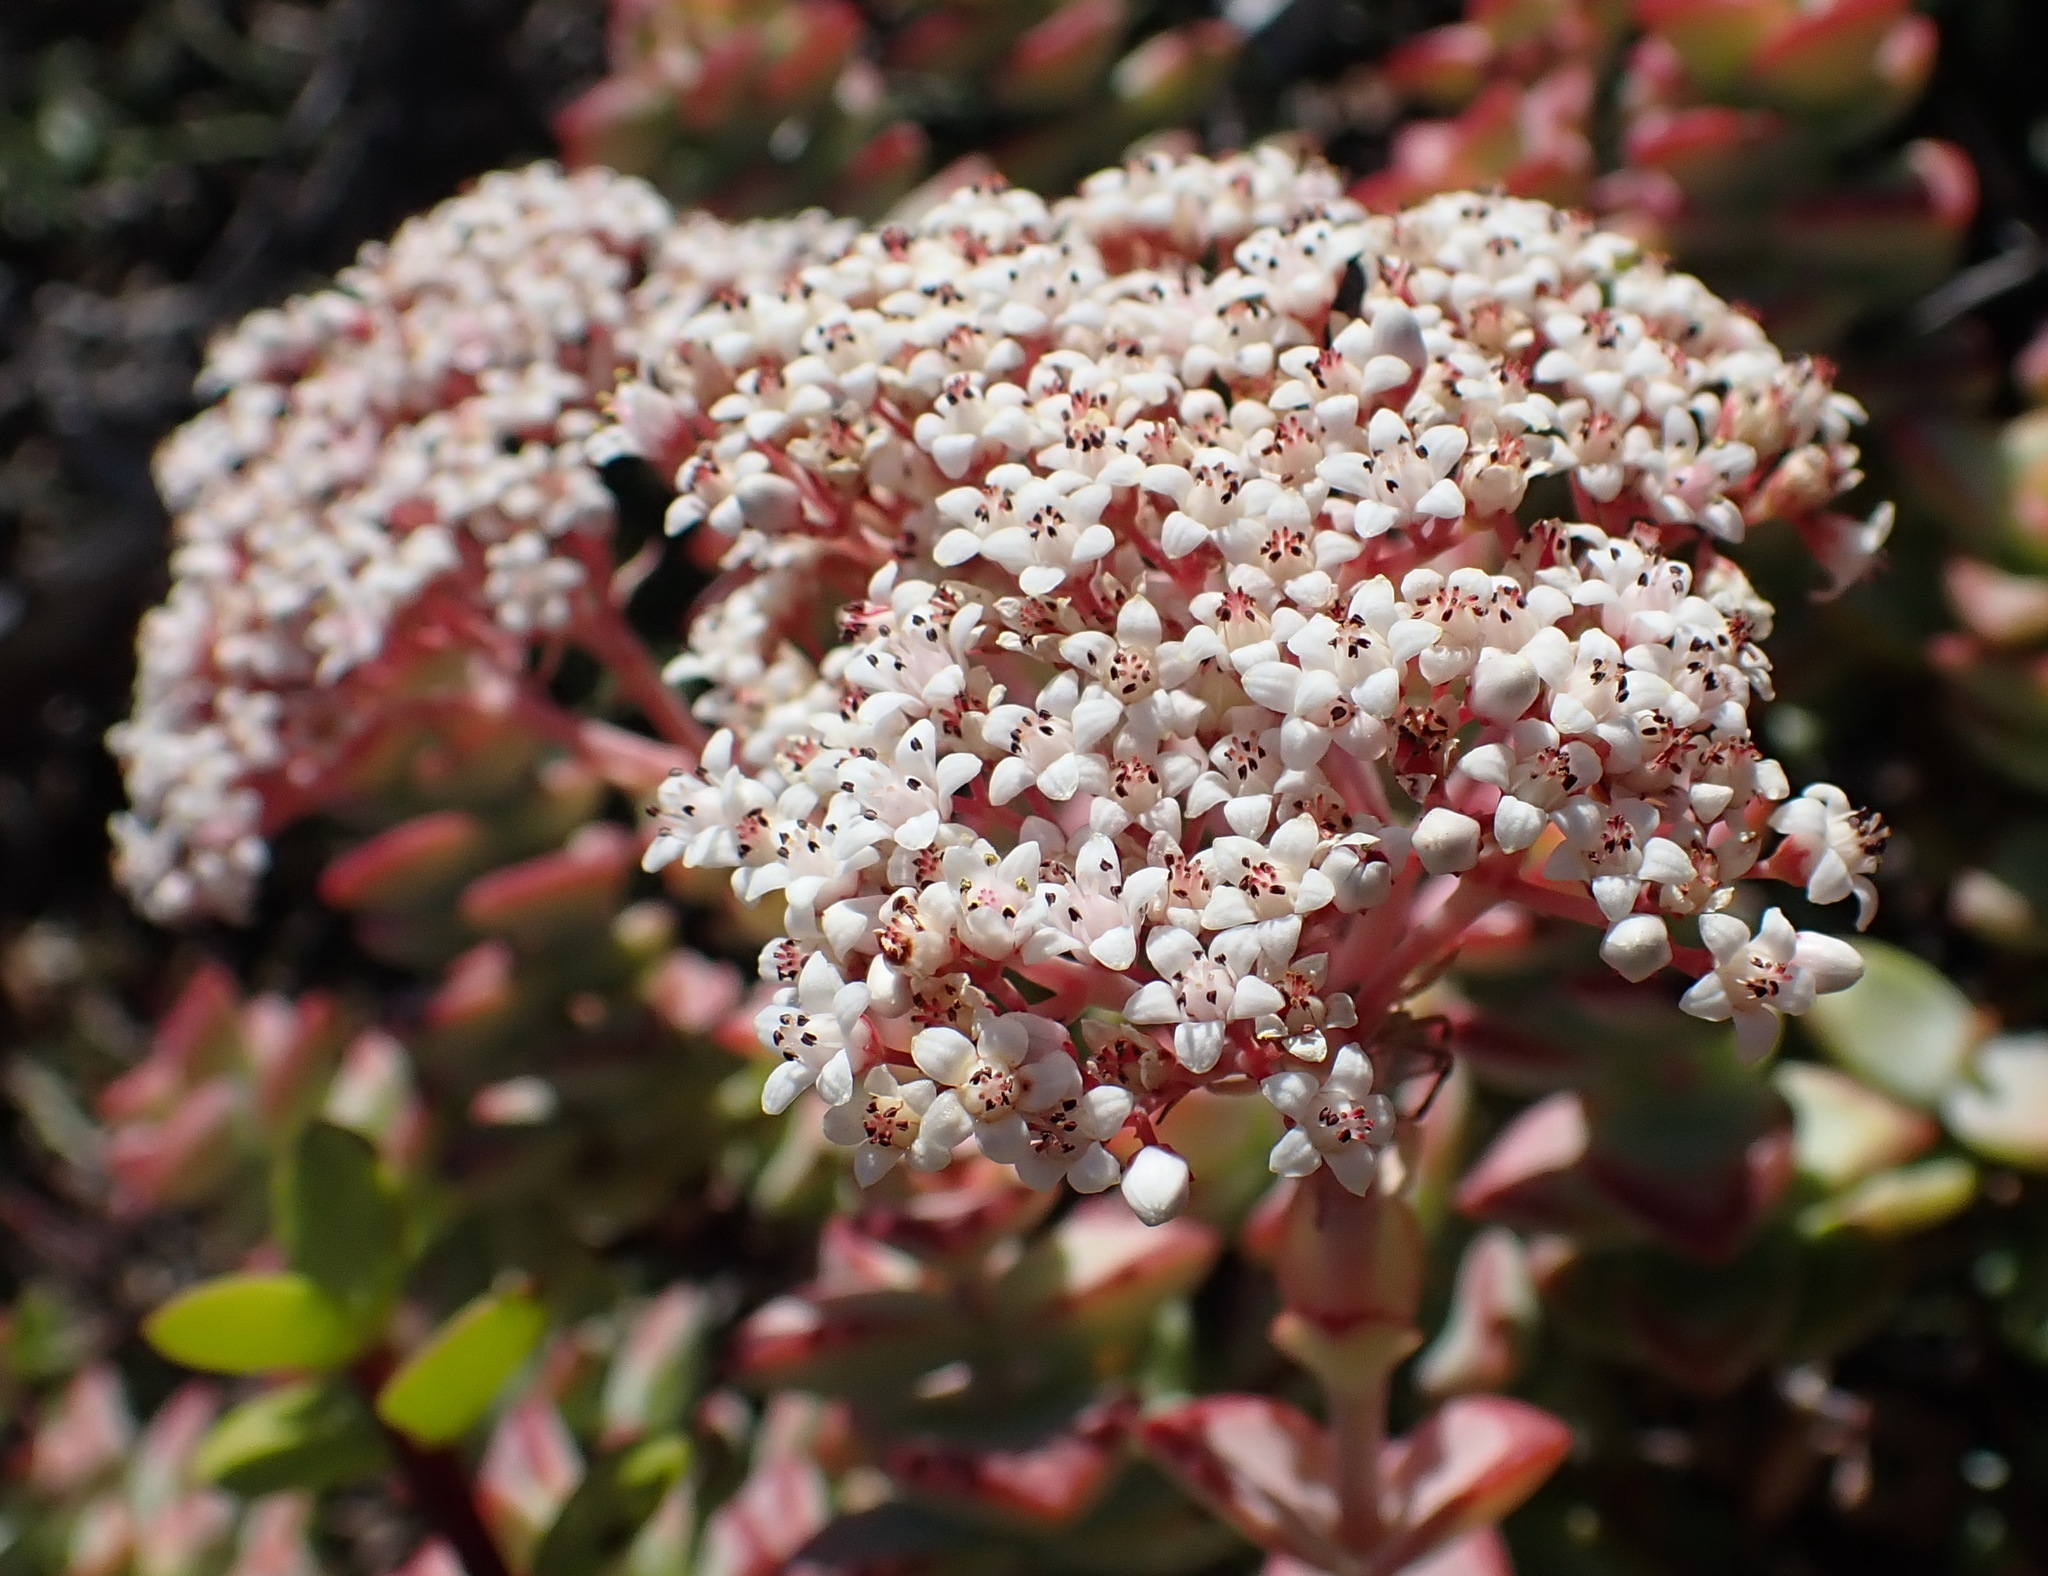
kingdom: Plantae
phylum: Tracheophyta
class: Magnoliopsida
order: Saxifragales
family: Crassulaceae
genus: Crassula
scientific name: Crassula rupestris
